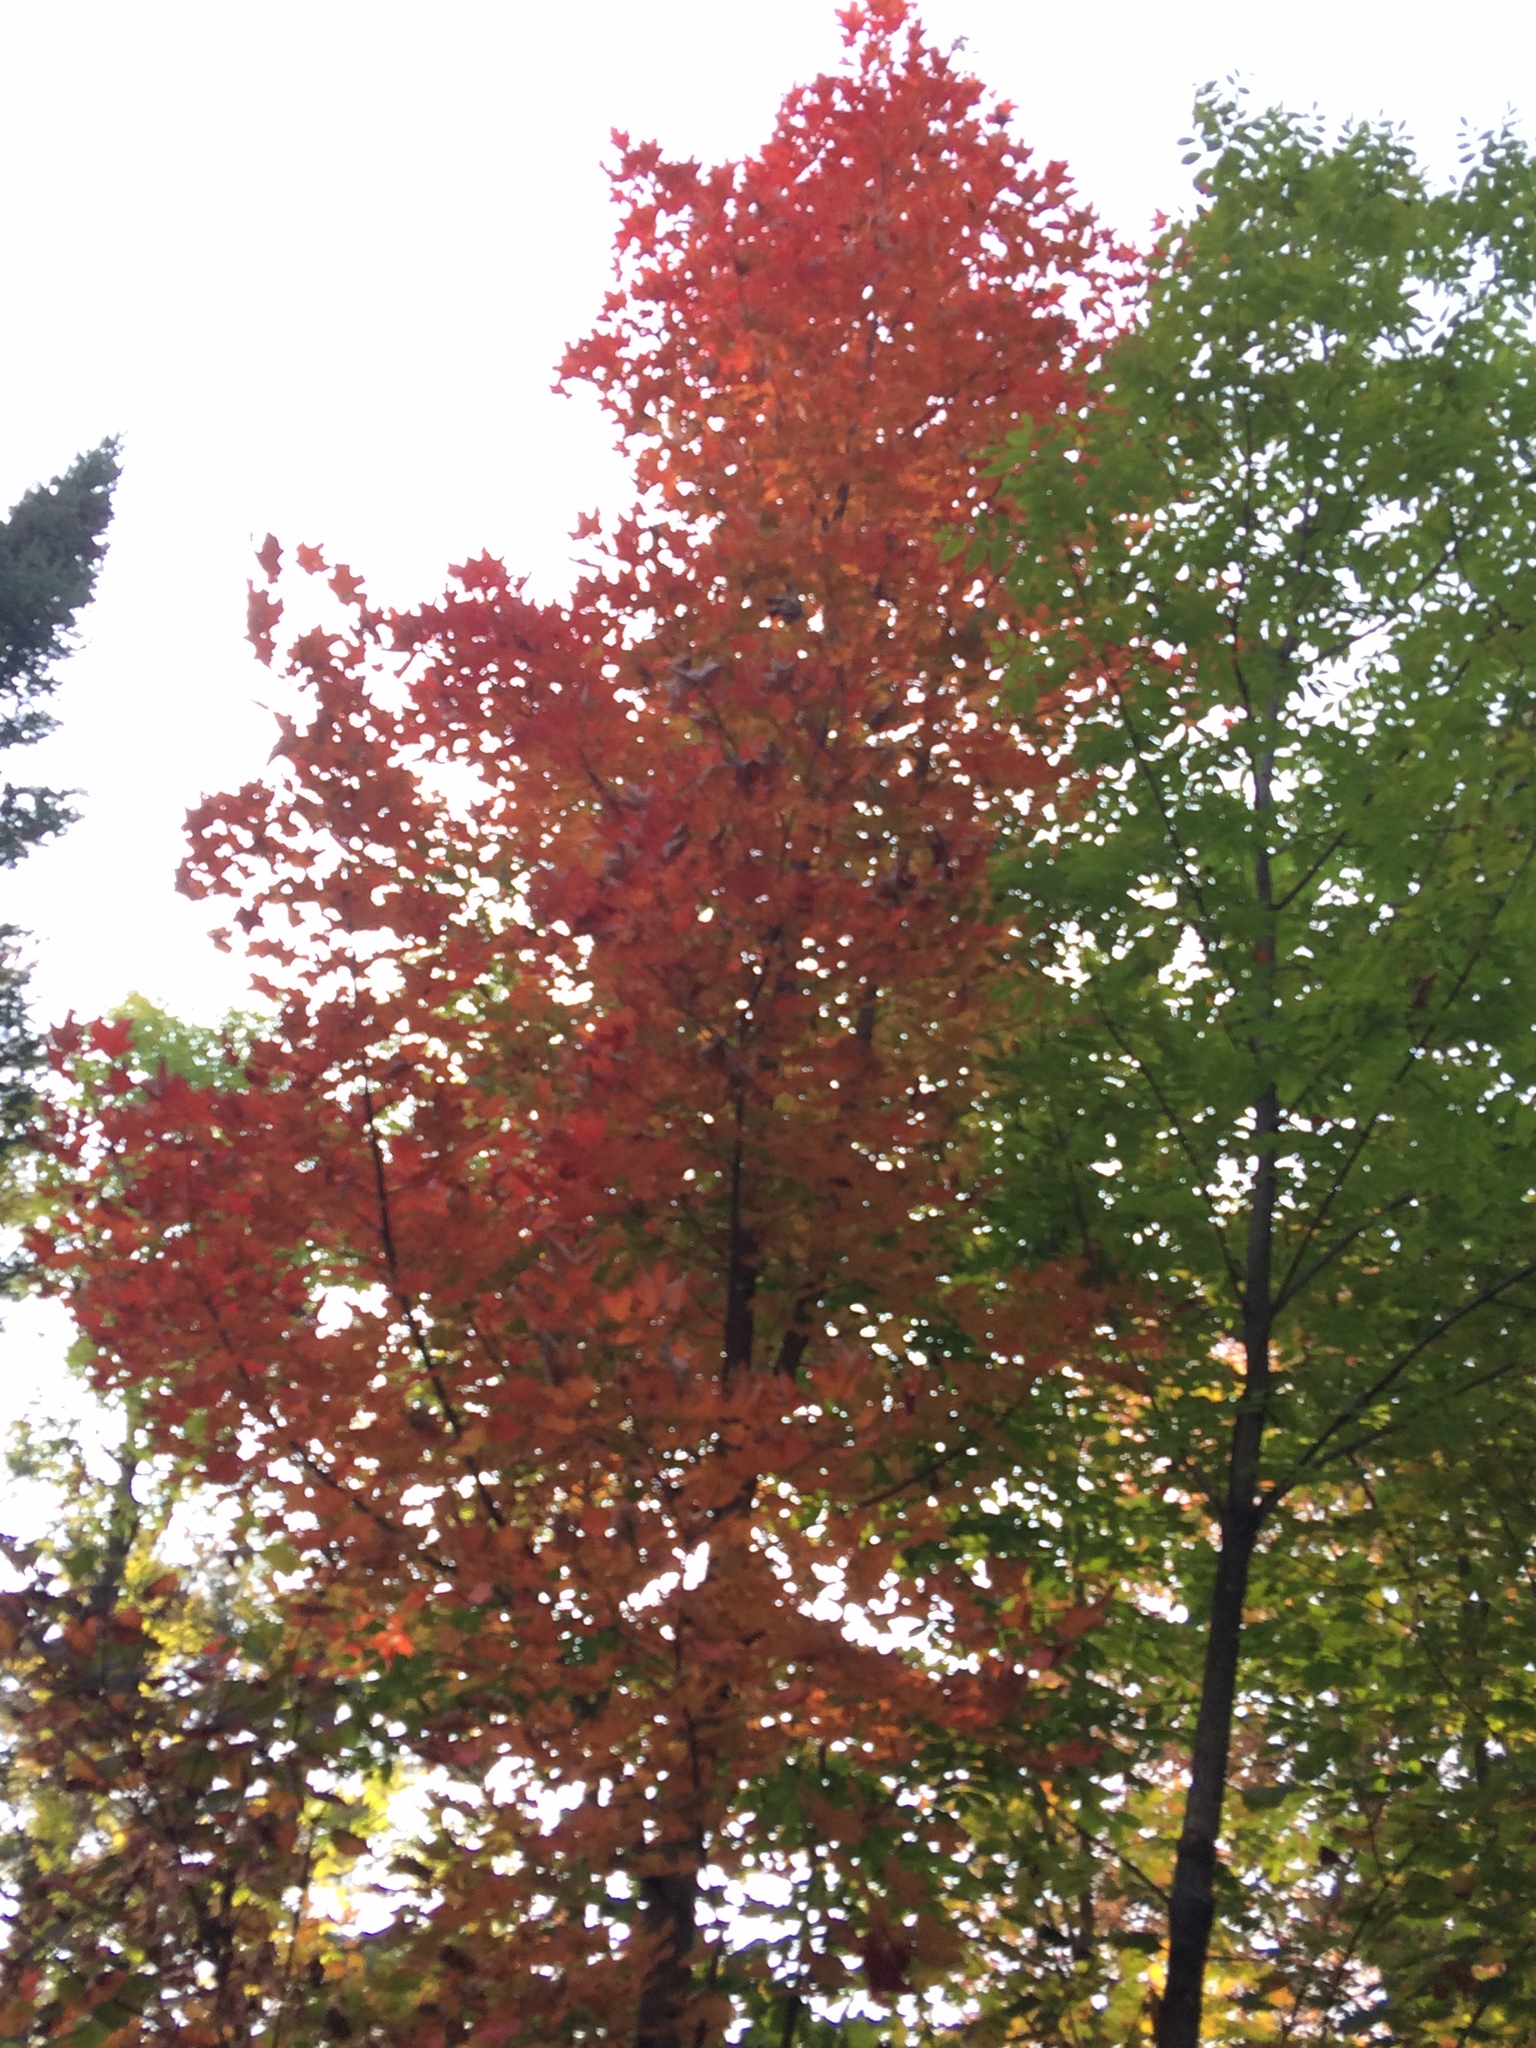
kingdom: Plantae
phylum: Tracheophyta
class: Magnoliopsida
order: Sapindales
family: Sapindaceae
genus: Acer
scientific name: Acer rubrum
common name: Red maple
